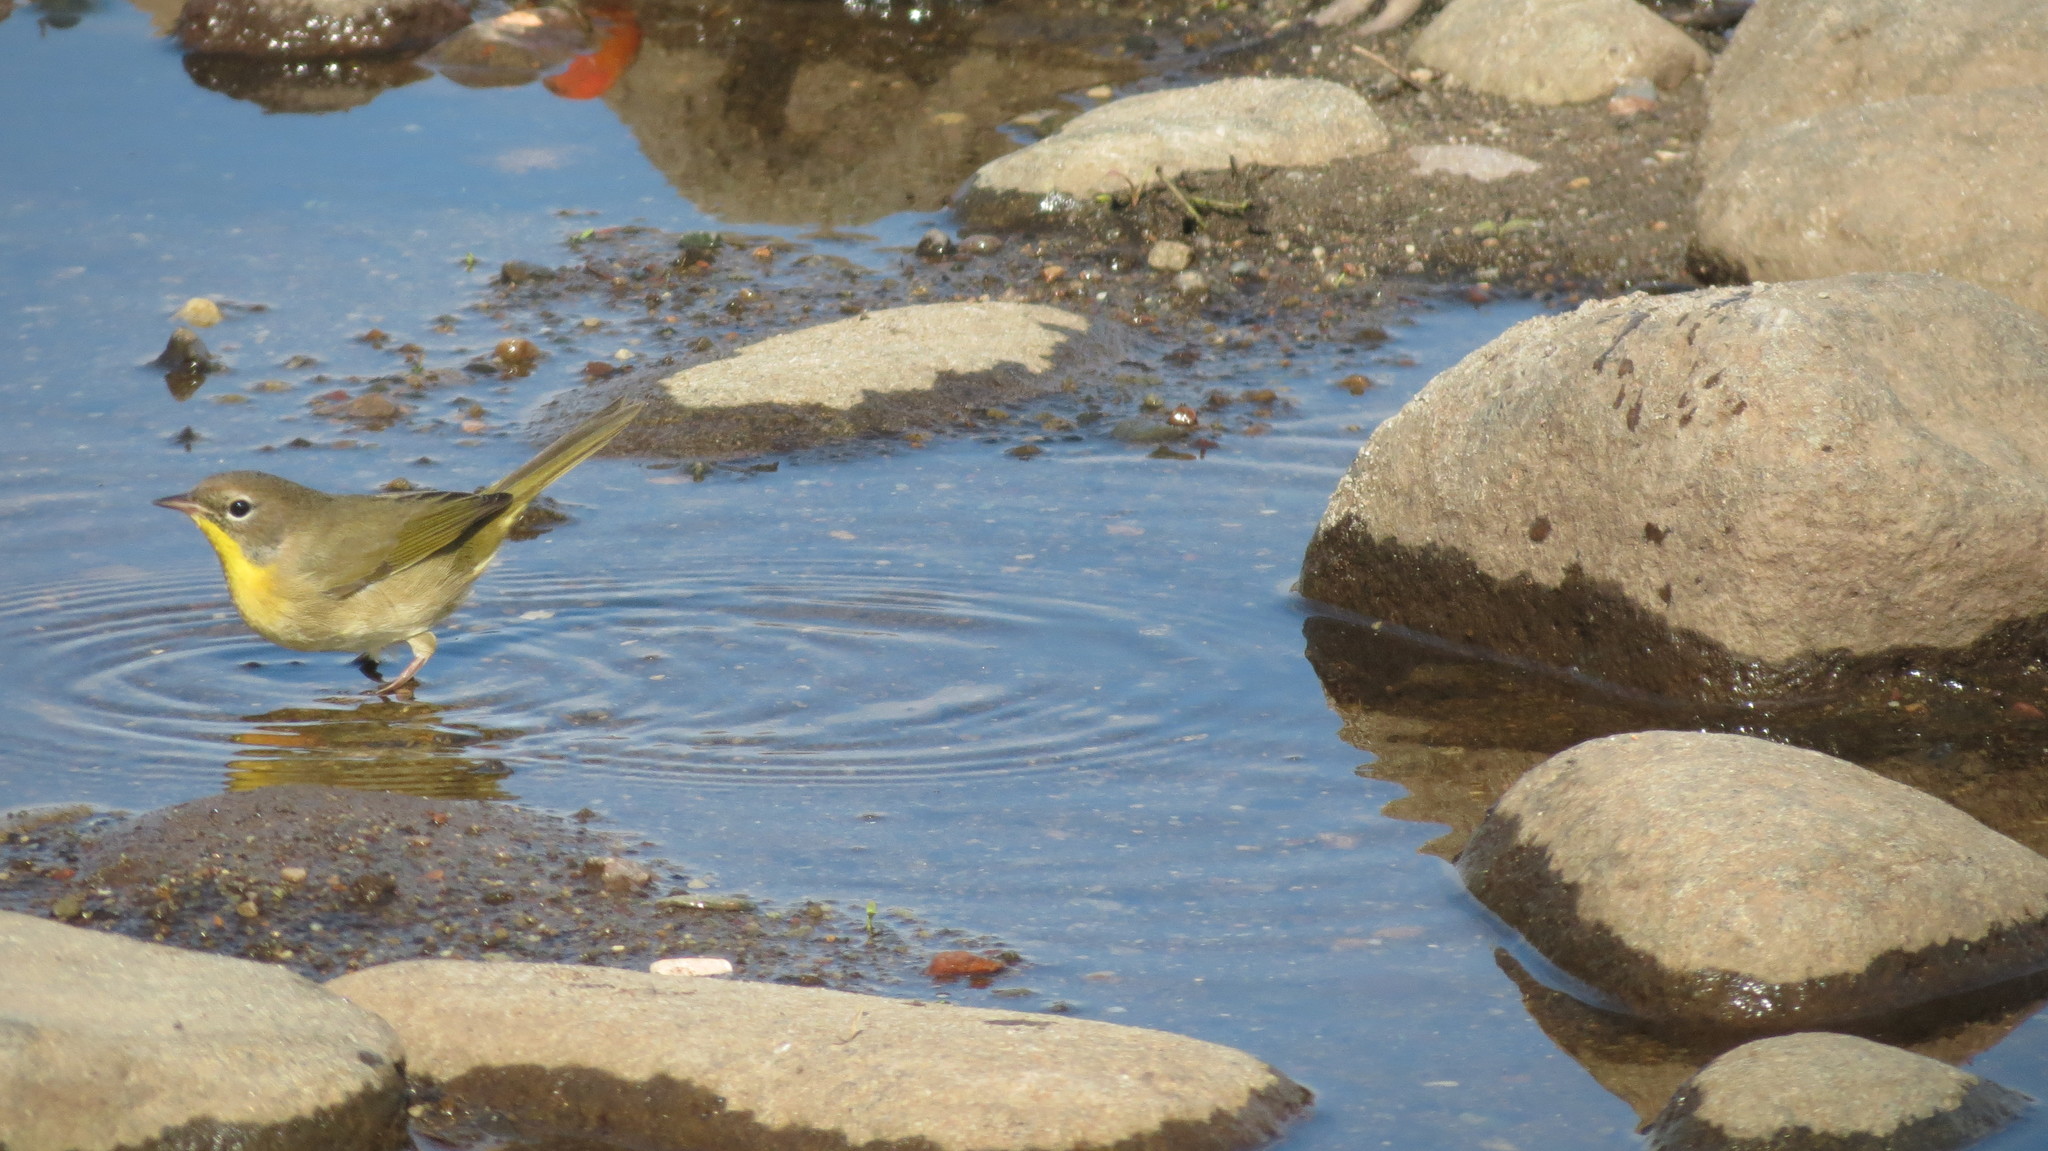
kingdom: Animalia
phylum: Chordata
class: Aves
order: Passeriformes
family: Parulidae
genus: Geothlypis
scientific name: Geothlypis trichas
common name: Common yellowthroat
